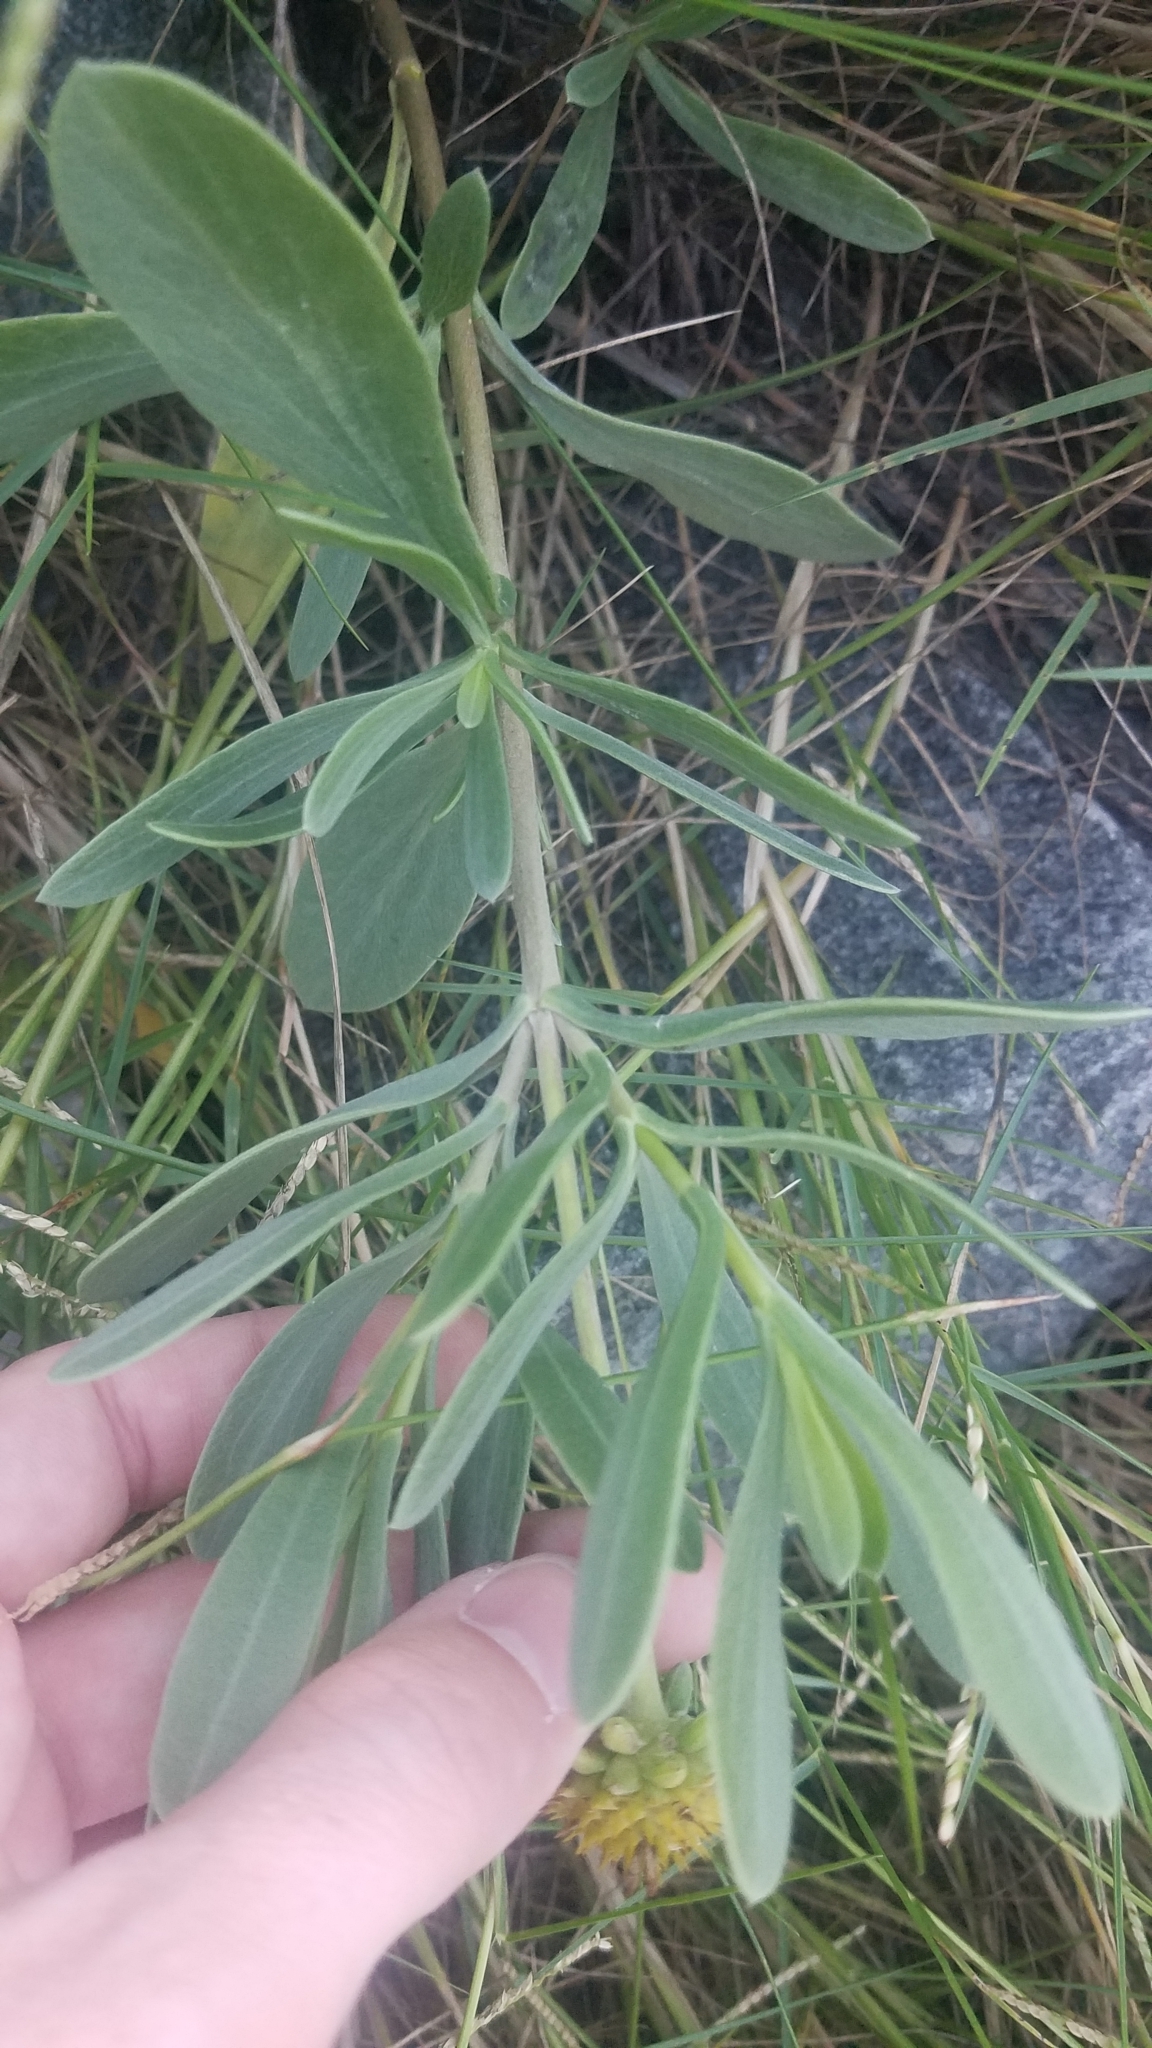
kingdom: Plantae
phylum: Tracheophyta
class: Magnoliopsida
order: Asterales
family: Asteraceae
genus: Borrichia
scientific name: Borrichia frutescens
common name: Sea oxeye
